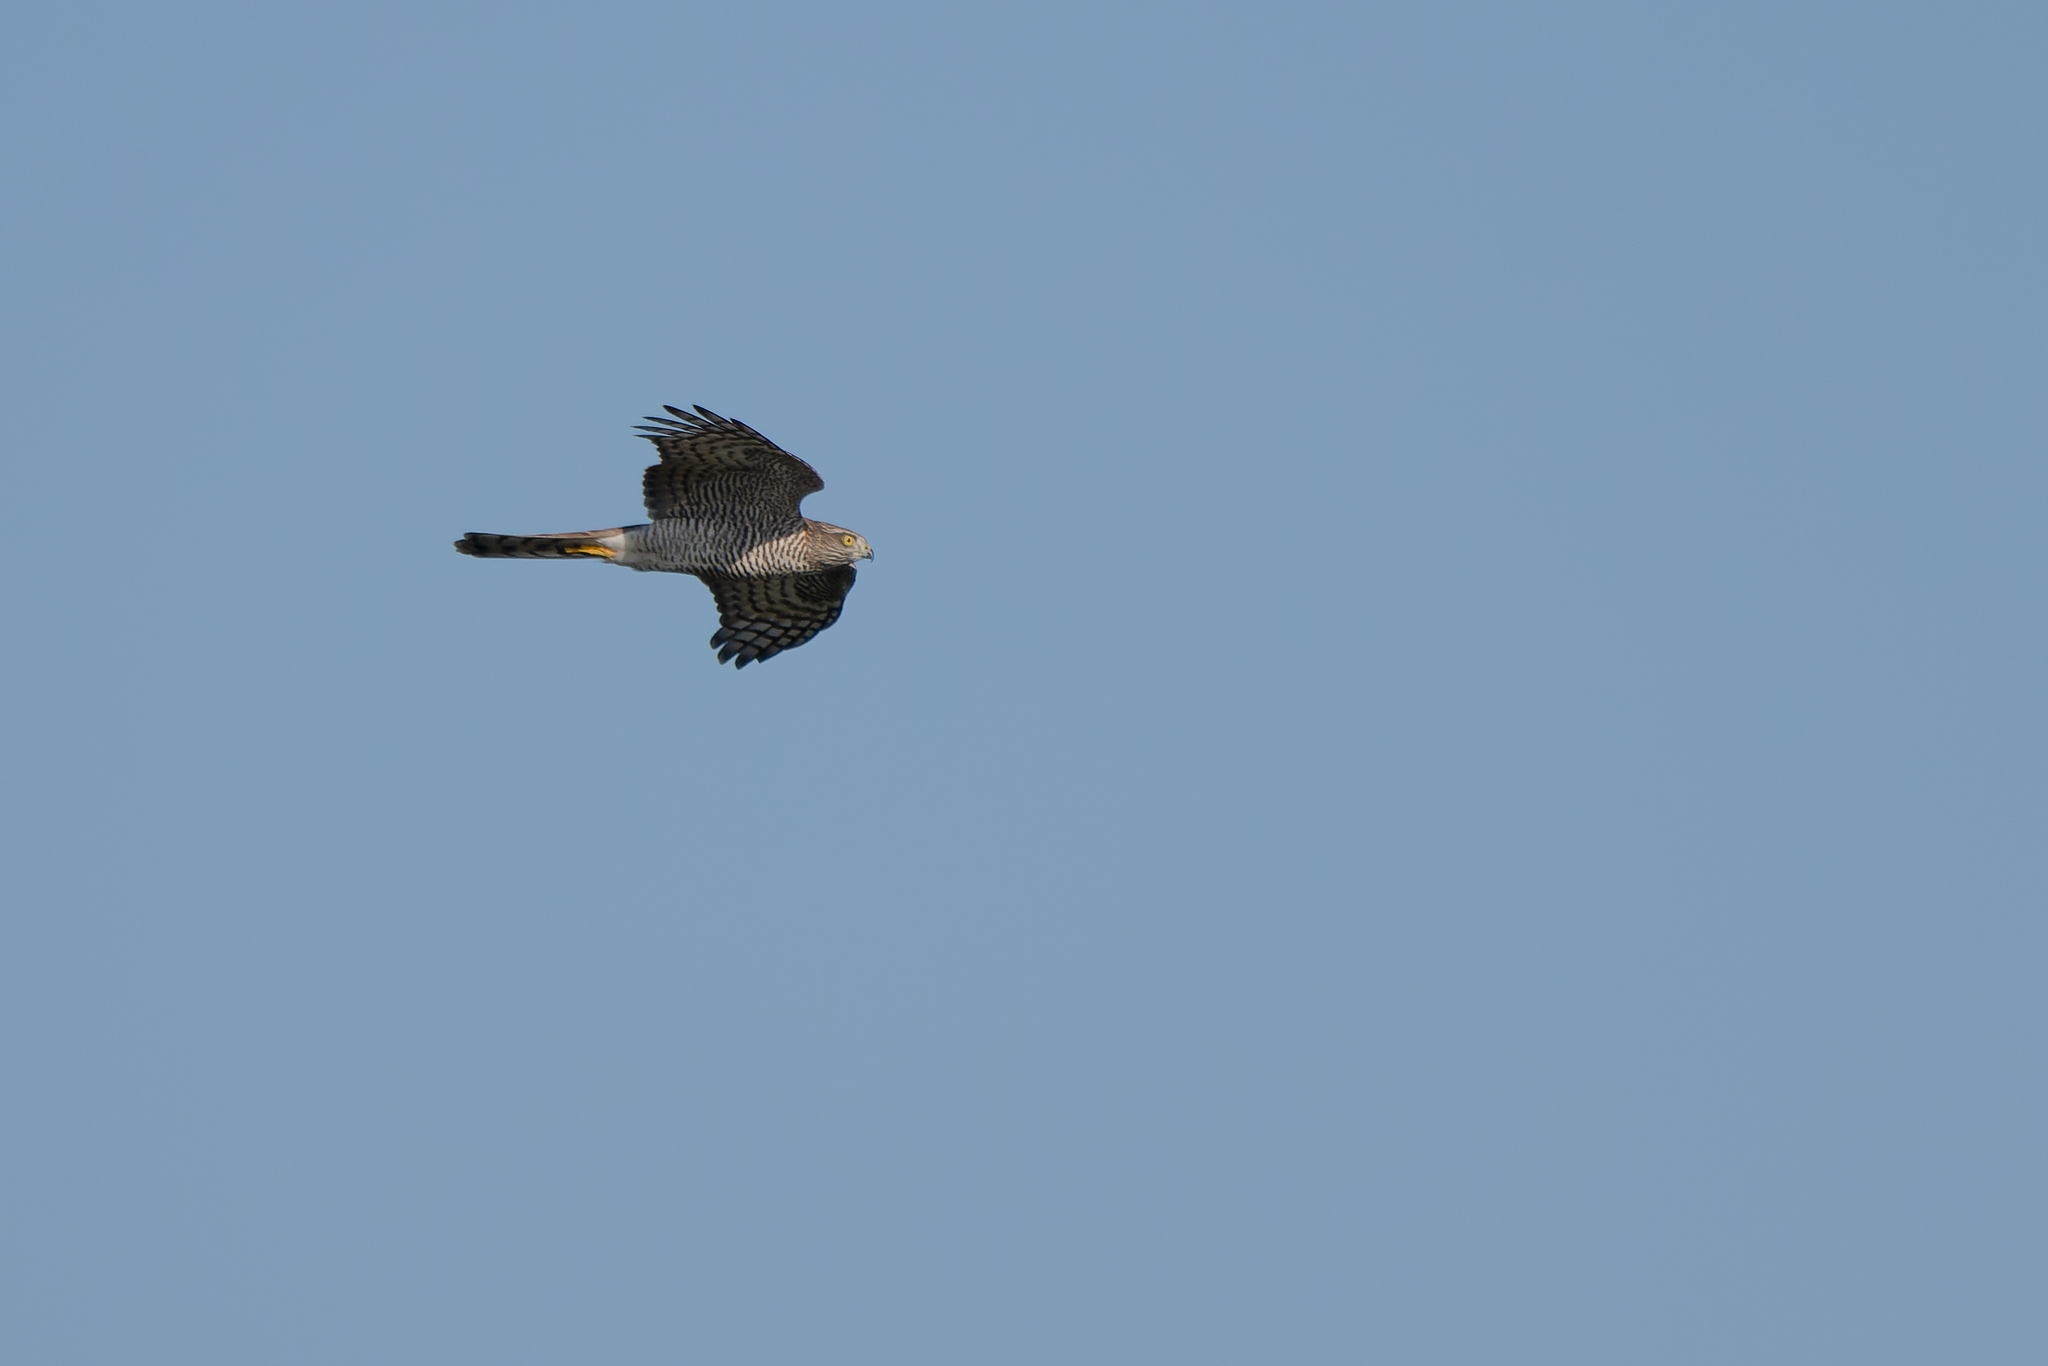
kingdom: Animalia
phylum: Chordata
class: Aves
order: Accipitriformes
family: Accipitridae
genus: Accipiter
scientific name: Accipiter nisus
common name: Eurasian sparrowhawk
